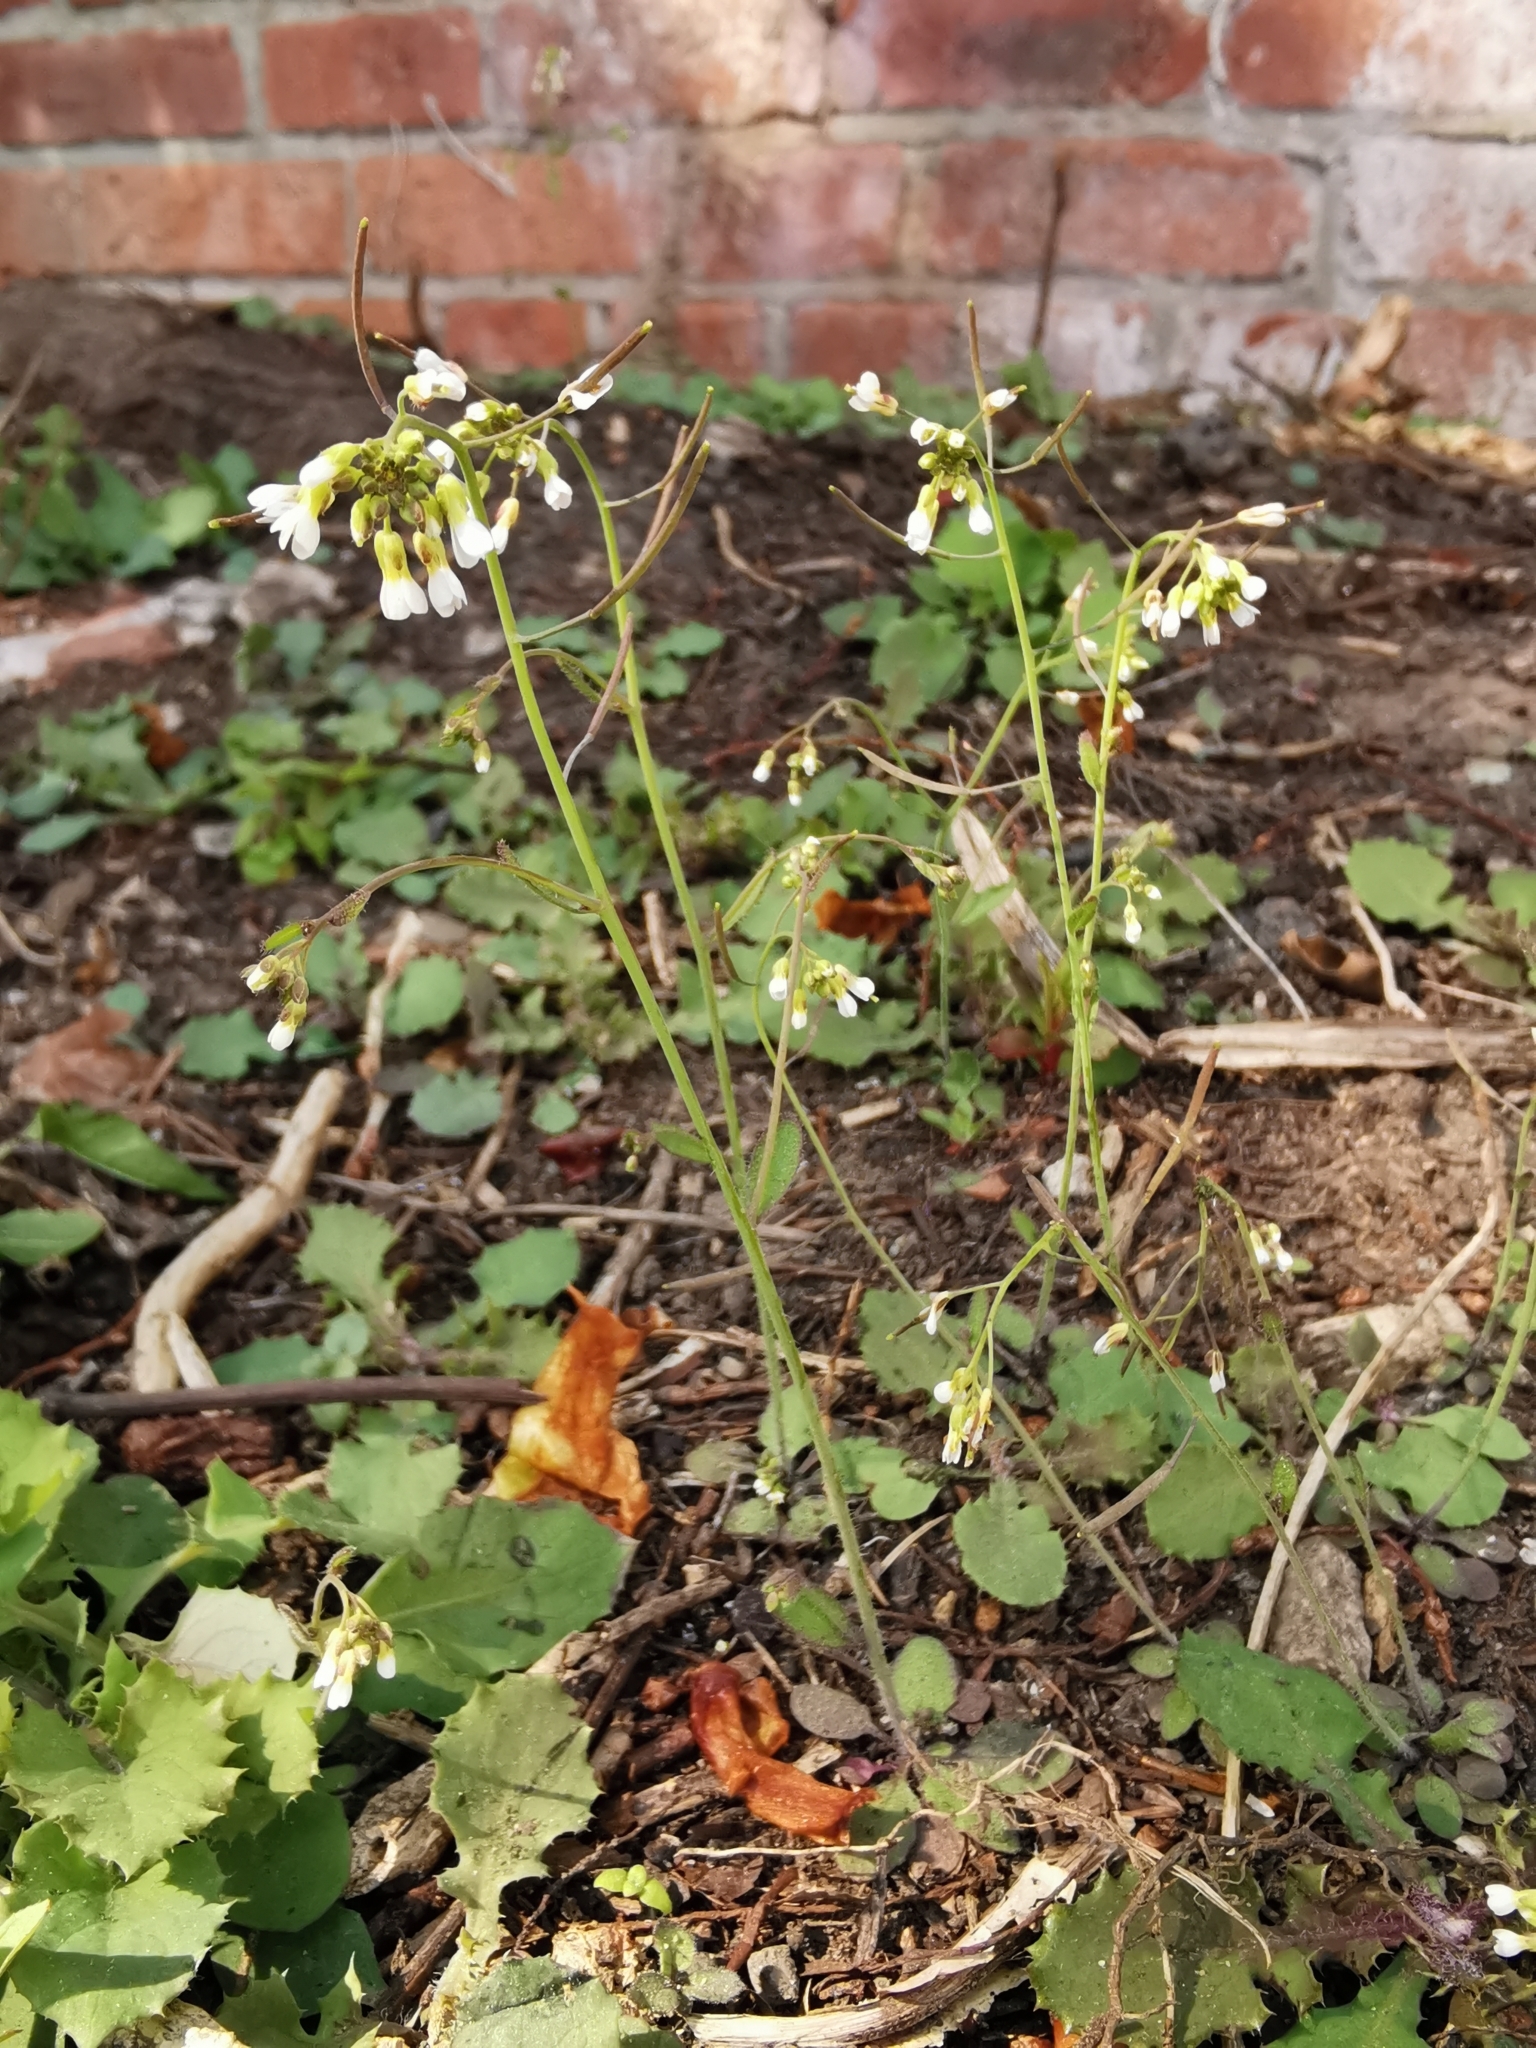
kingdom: Plantae
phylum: Tracheophyta
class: Magnoliopsida
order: Brassicales
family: Brassicaceae
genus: Arabidopsis
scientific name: Arabidopsis thaliana
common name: Thale cress
